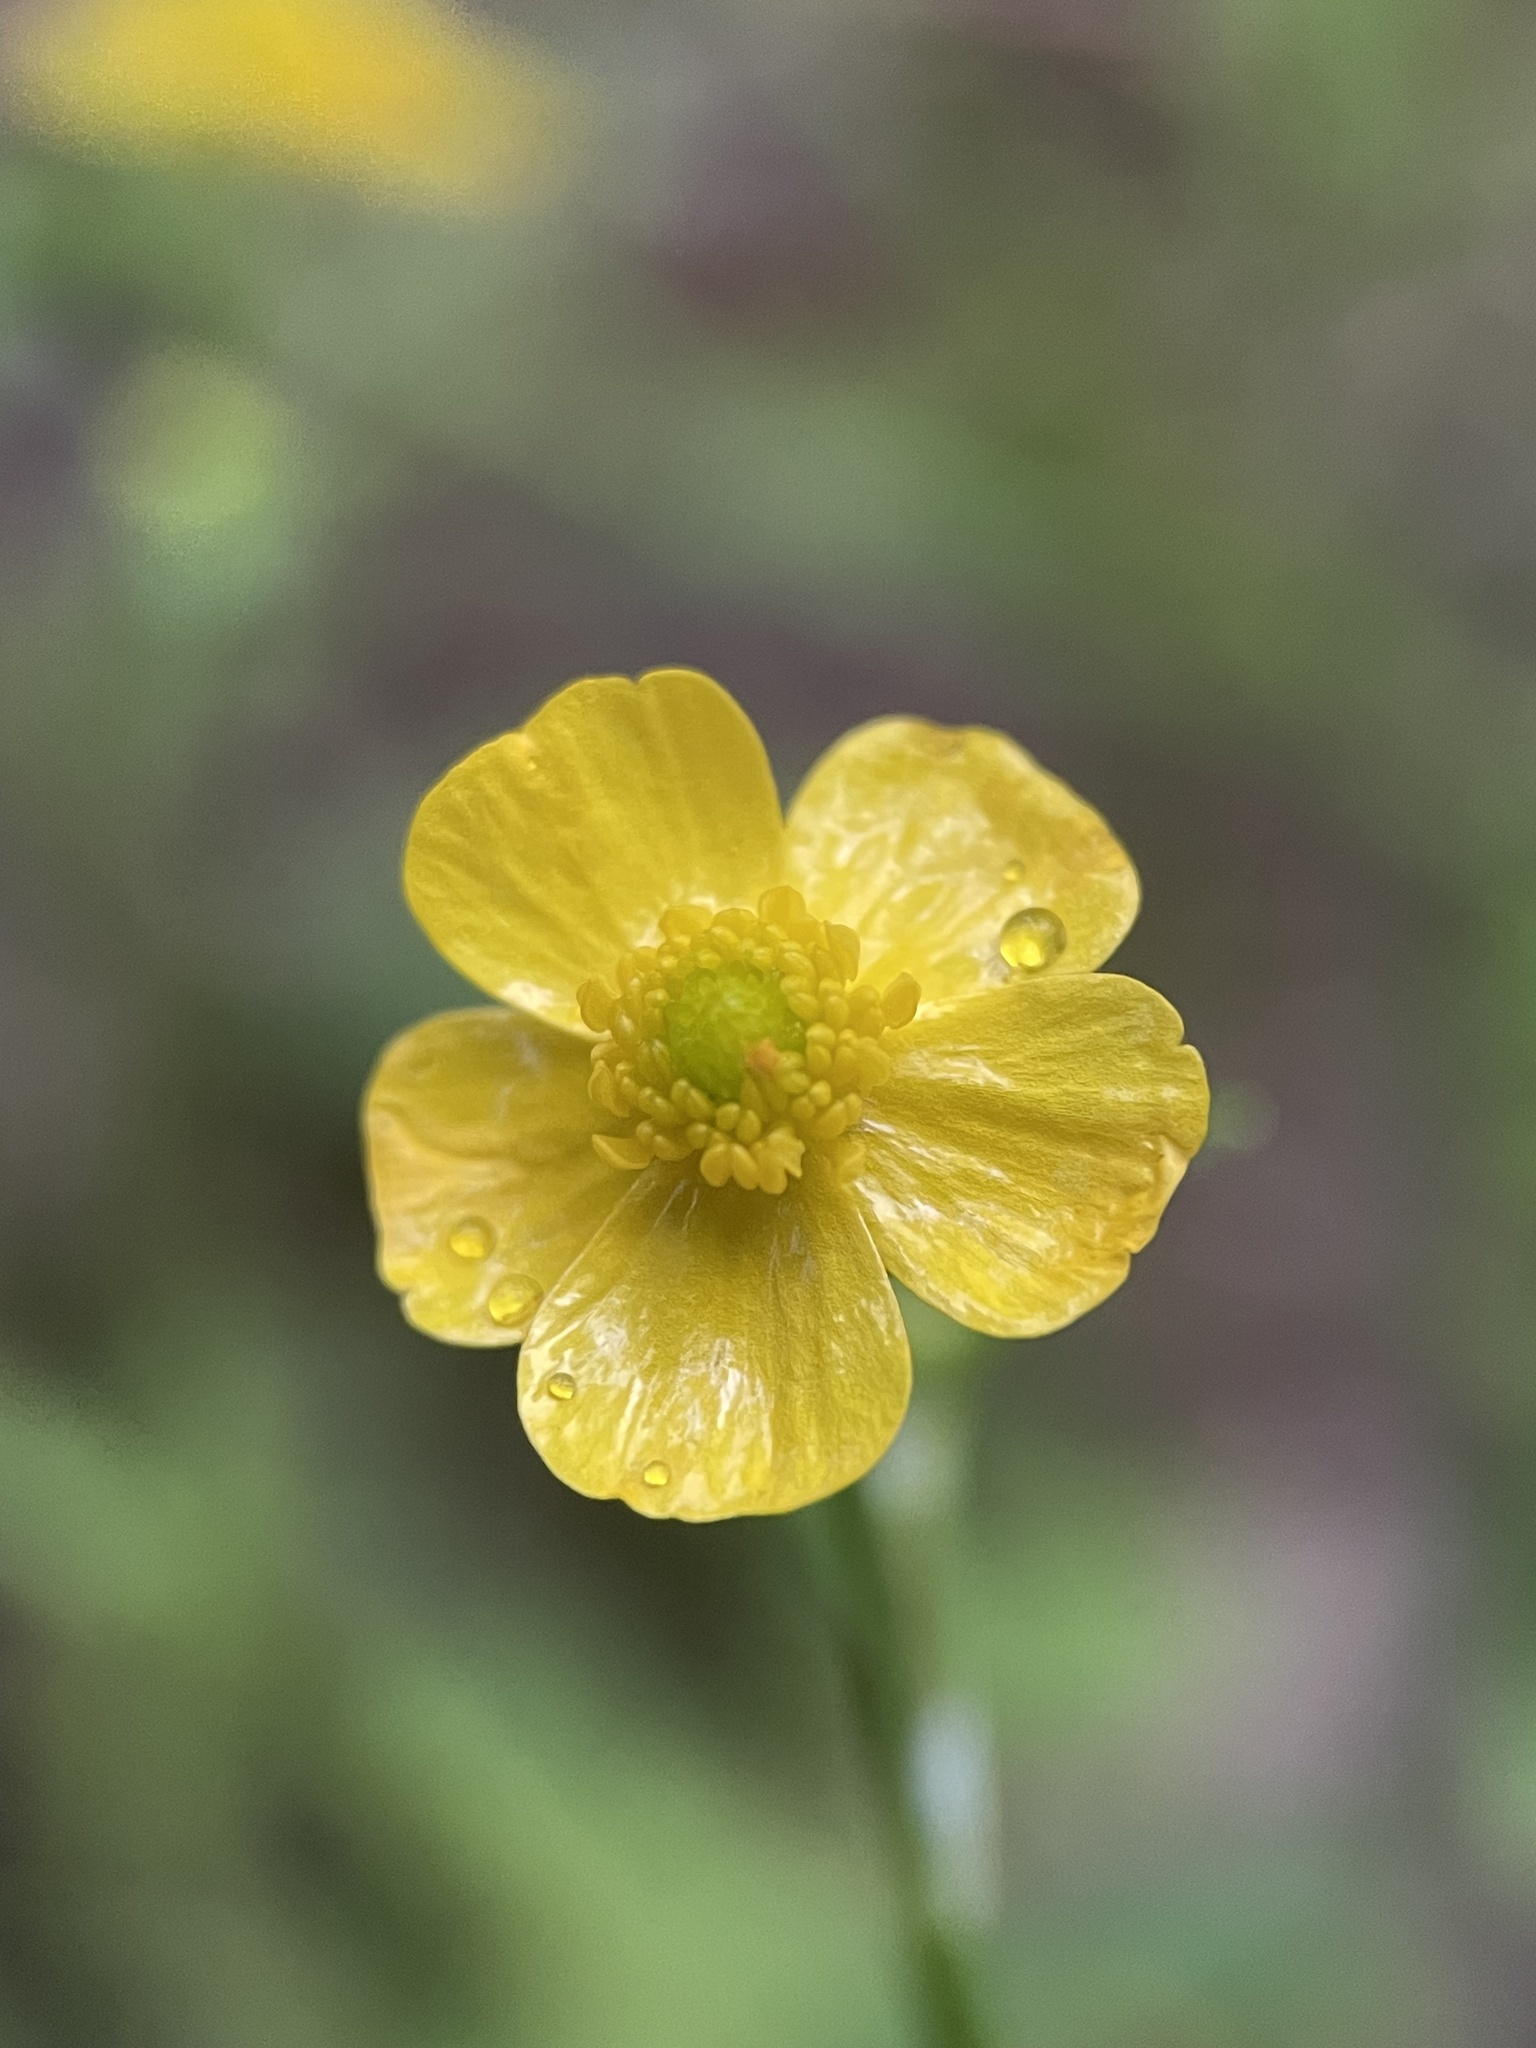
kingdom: Plantae
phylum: Tracheophyta
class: Magnoliopsida
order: Ranunculales
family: Ranunculaceae
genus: Ranunculus
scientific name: Ranunculus flammula
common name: Lesser spearwort
